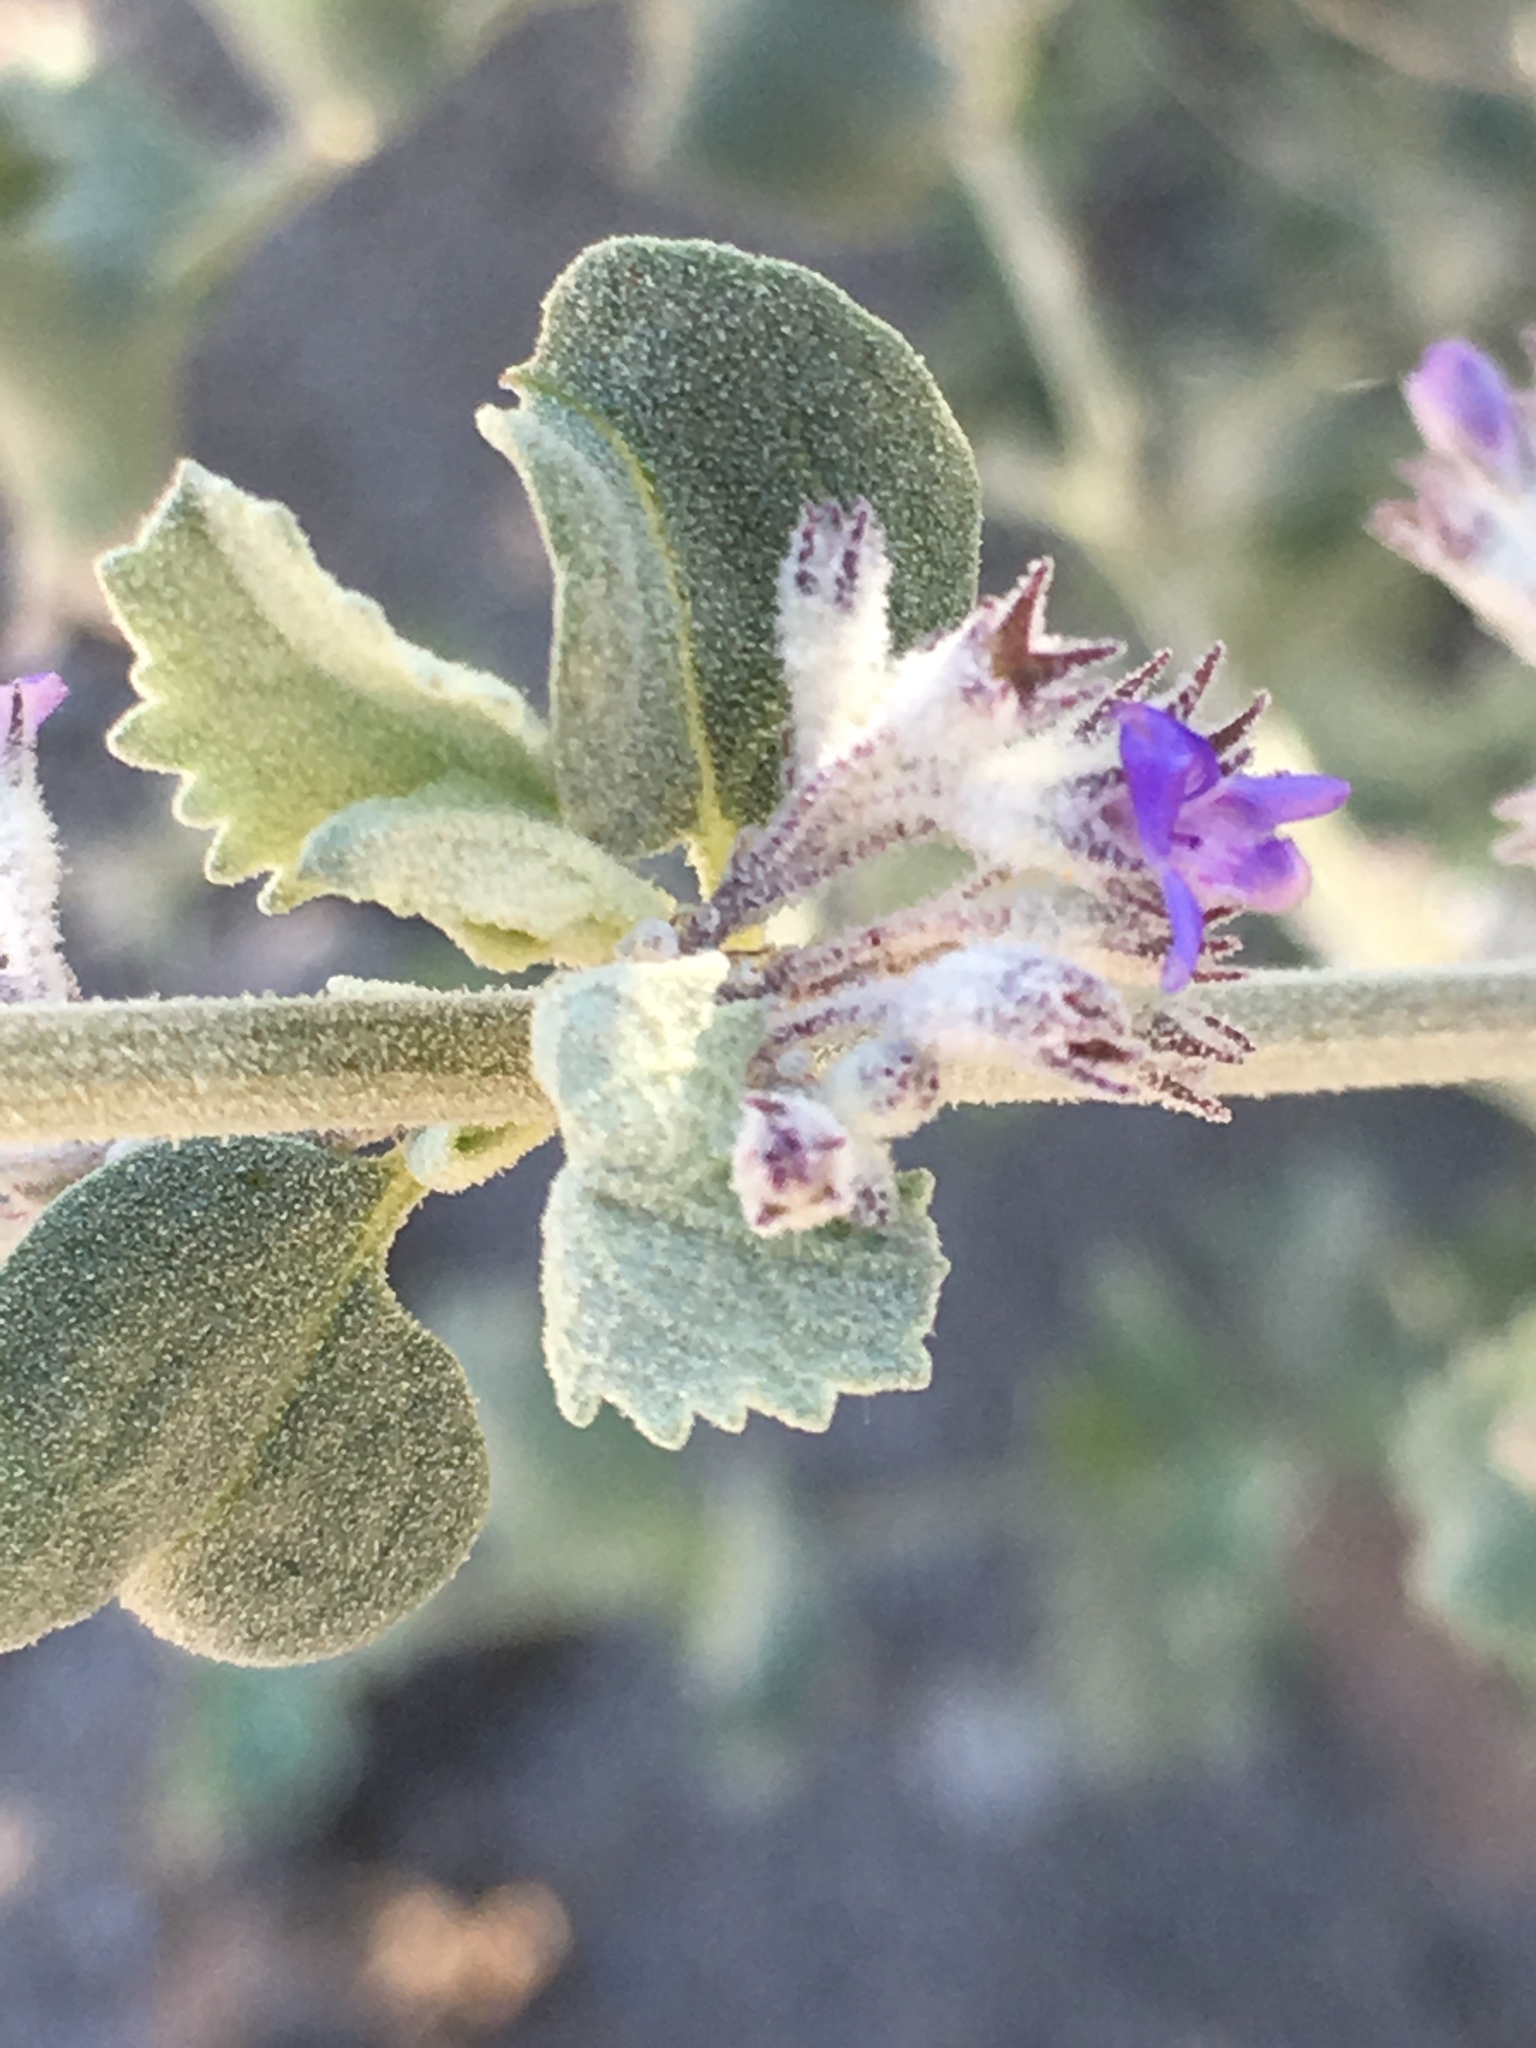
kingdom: Plantae
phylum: Tracheophyta
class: Magnoliopsida
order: Lamiales
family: Lamiaceae
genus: Condea
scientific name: Condea emoryi
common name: Chia
